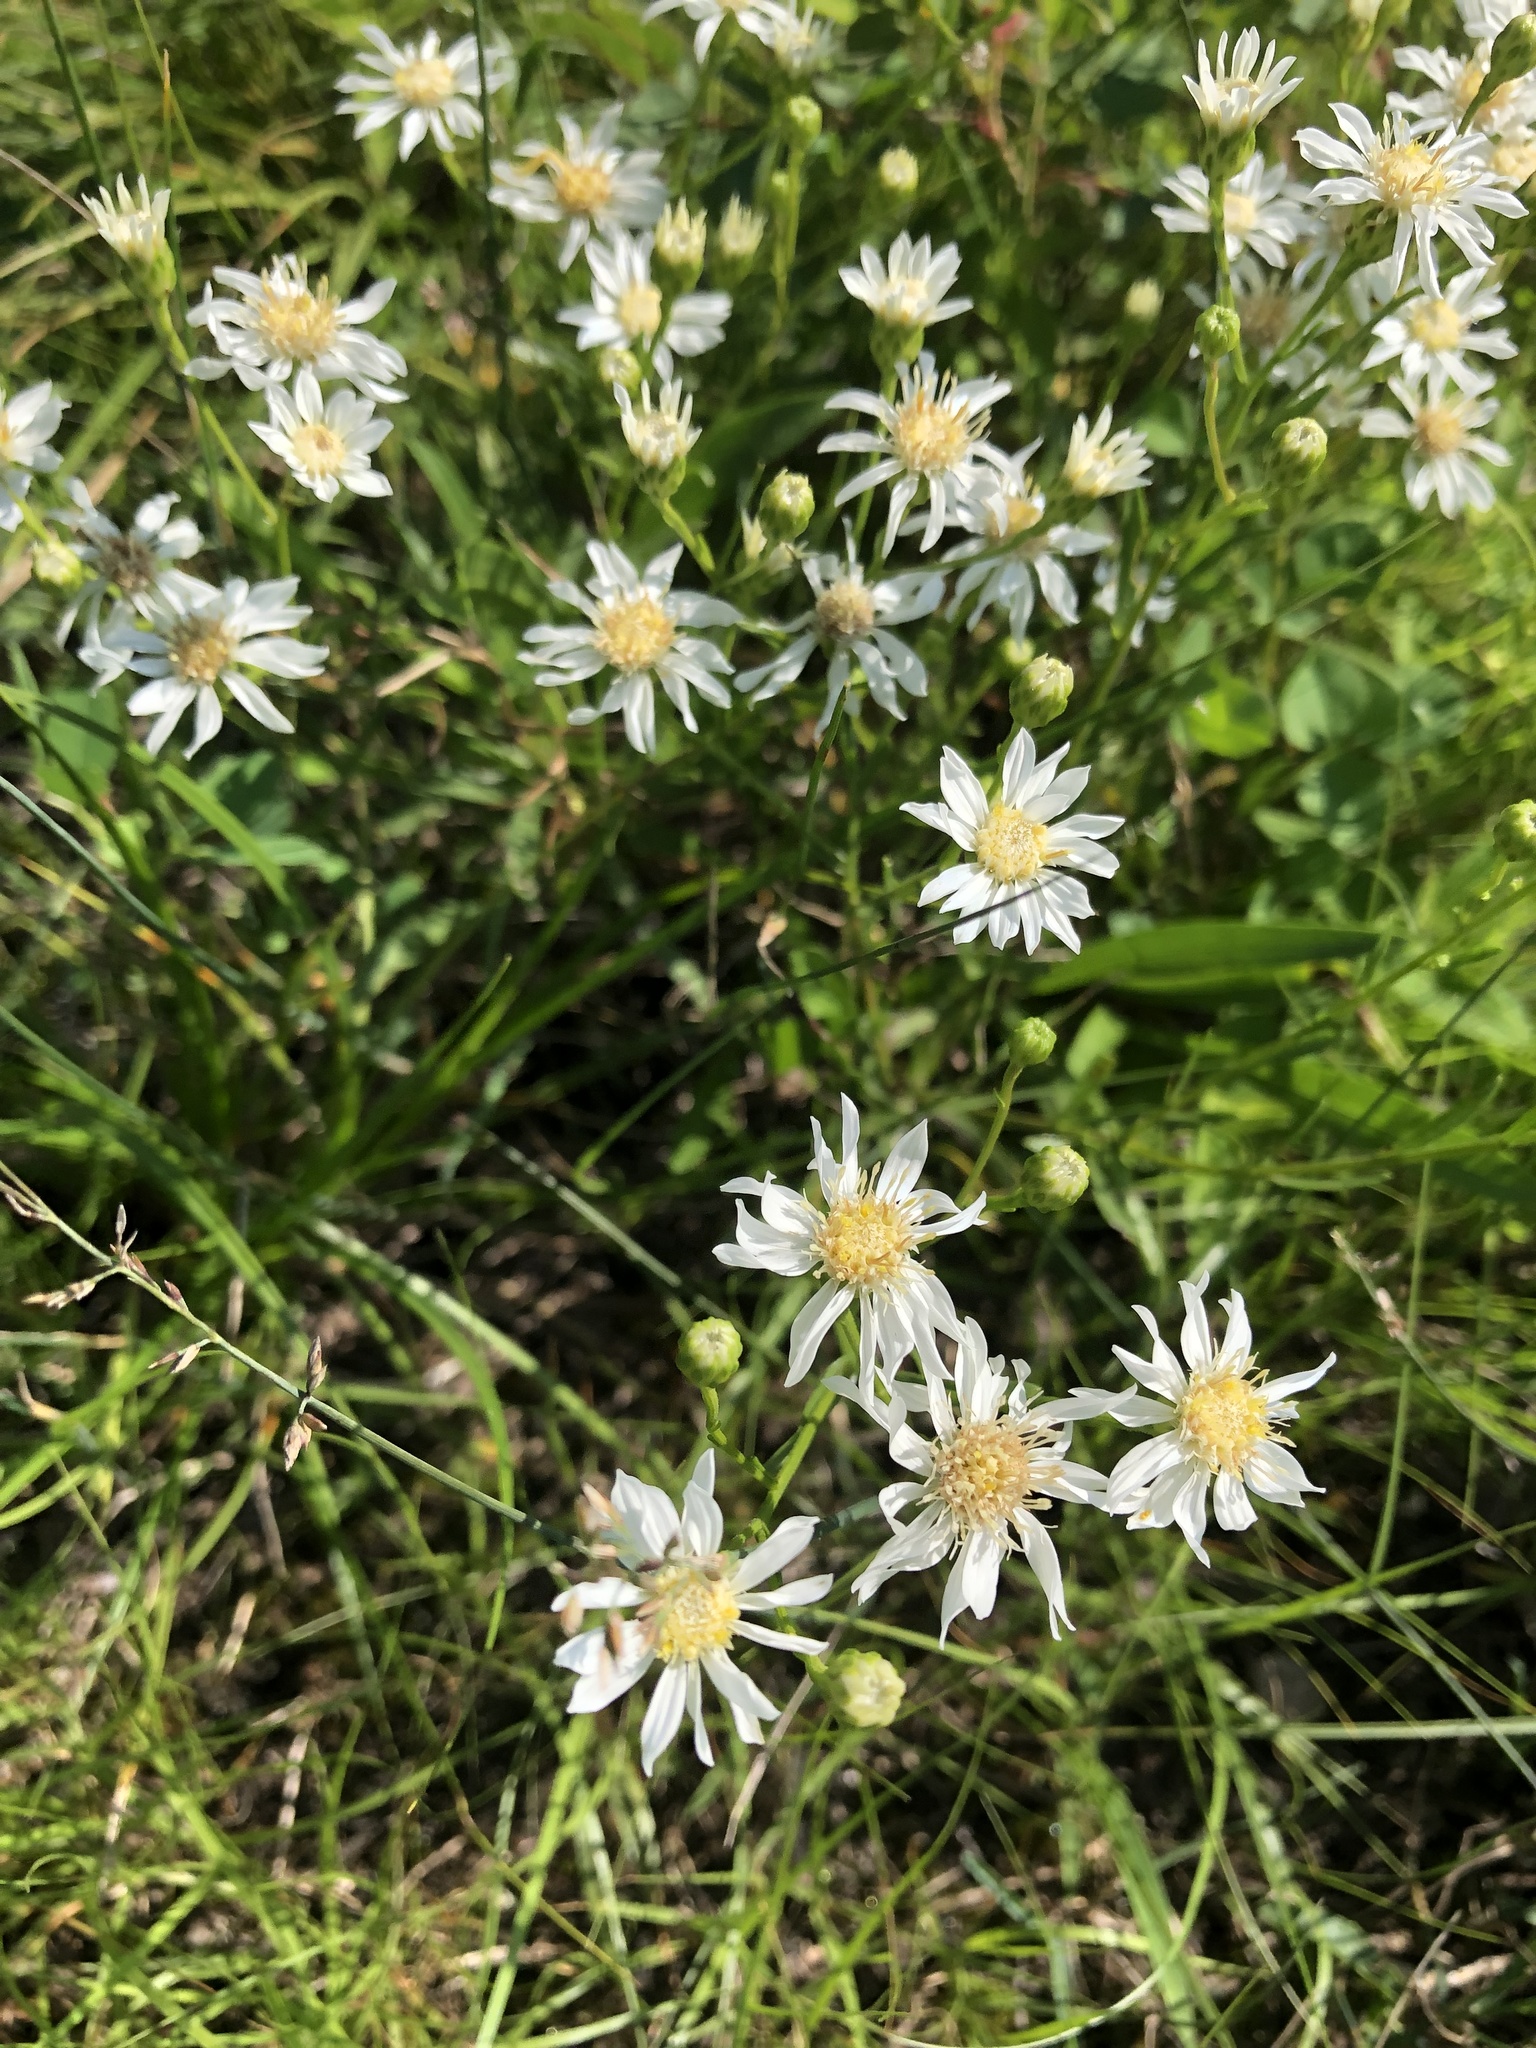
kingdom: Plantae
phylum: Tracheophyta
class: Magnoliopsida
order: Asterales
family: Asteraceae
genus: Solidago
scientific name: Solidago ptarmicoides
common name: White flat-top goldenrod
